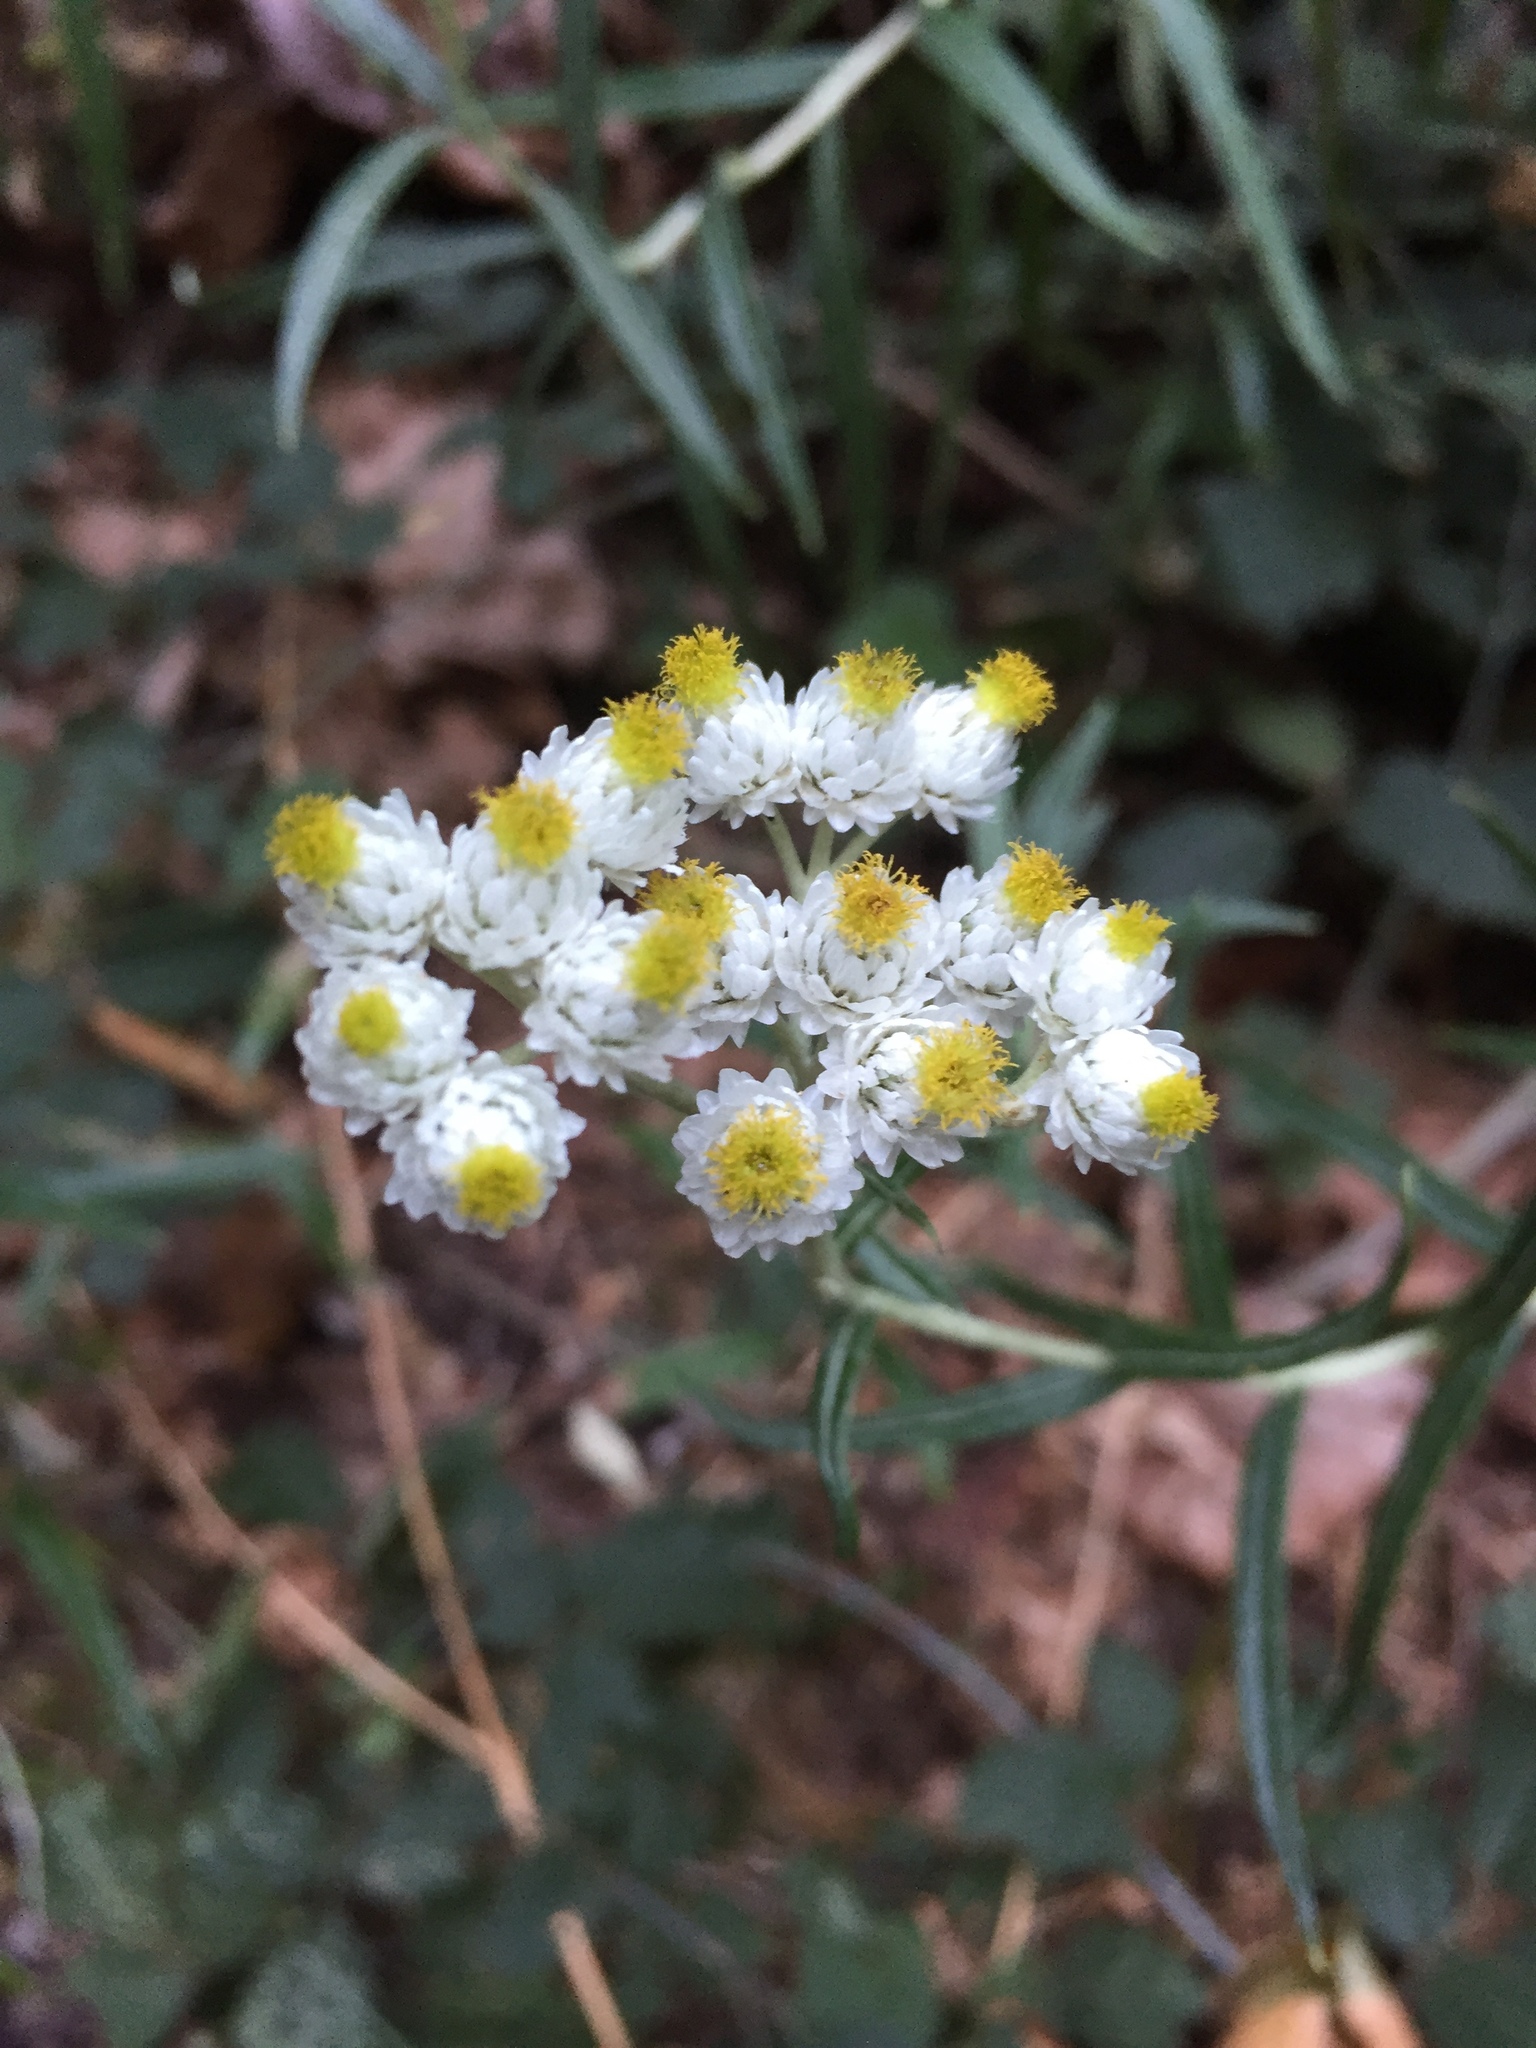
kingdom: Plantae
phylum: Tracheophyta
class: Magnoliopsida
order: Asterales
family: Asteraceae
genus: Anaphalis
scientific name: Anaphalis margaritacea
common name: Pearly everlasting
